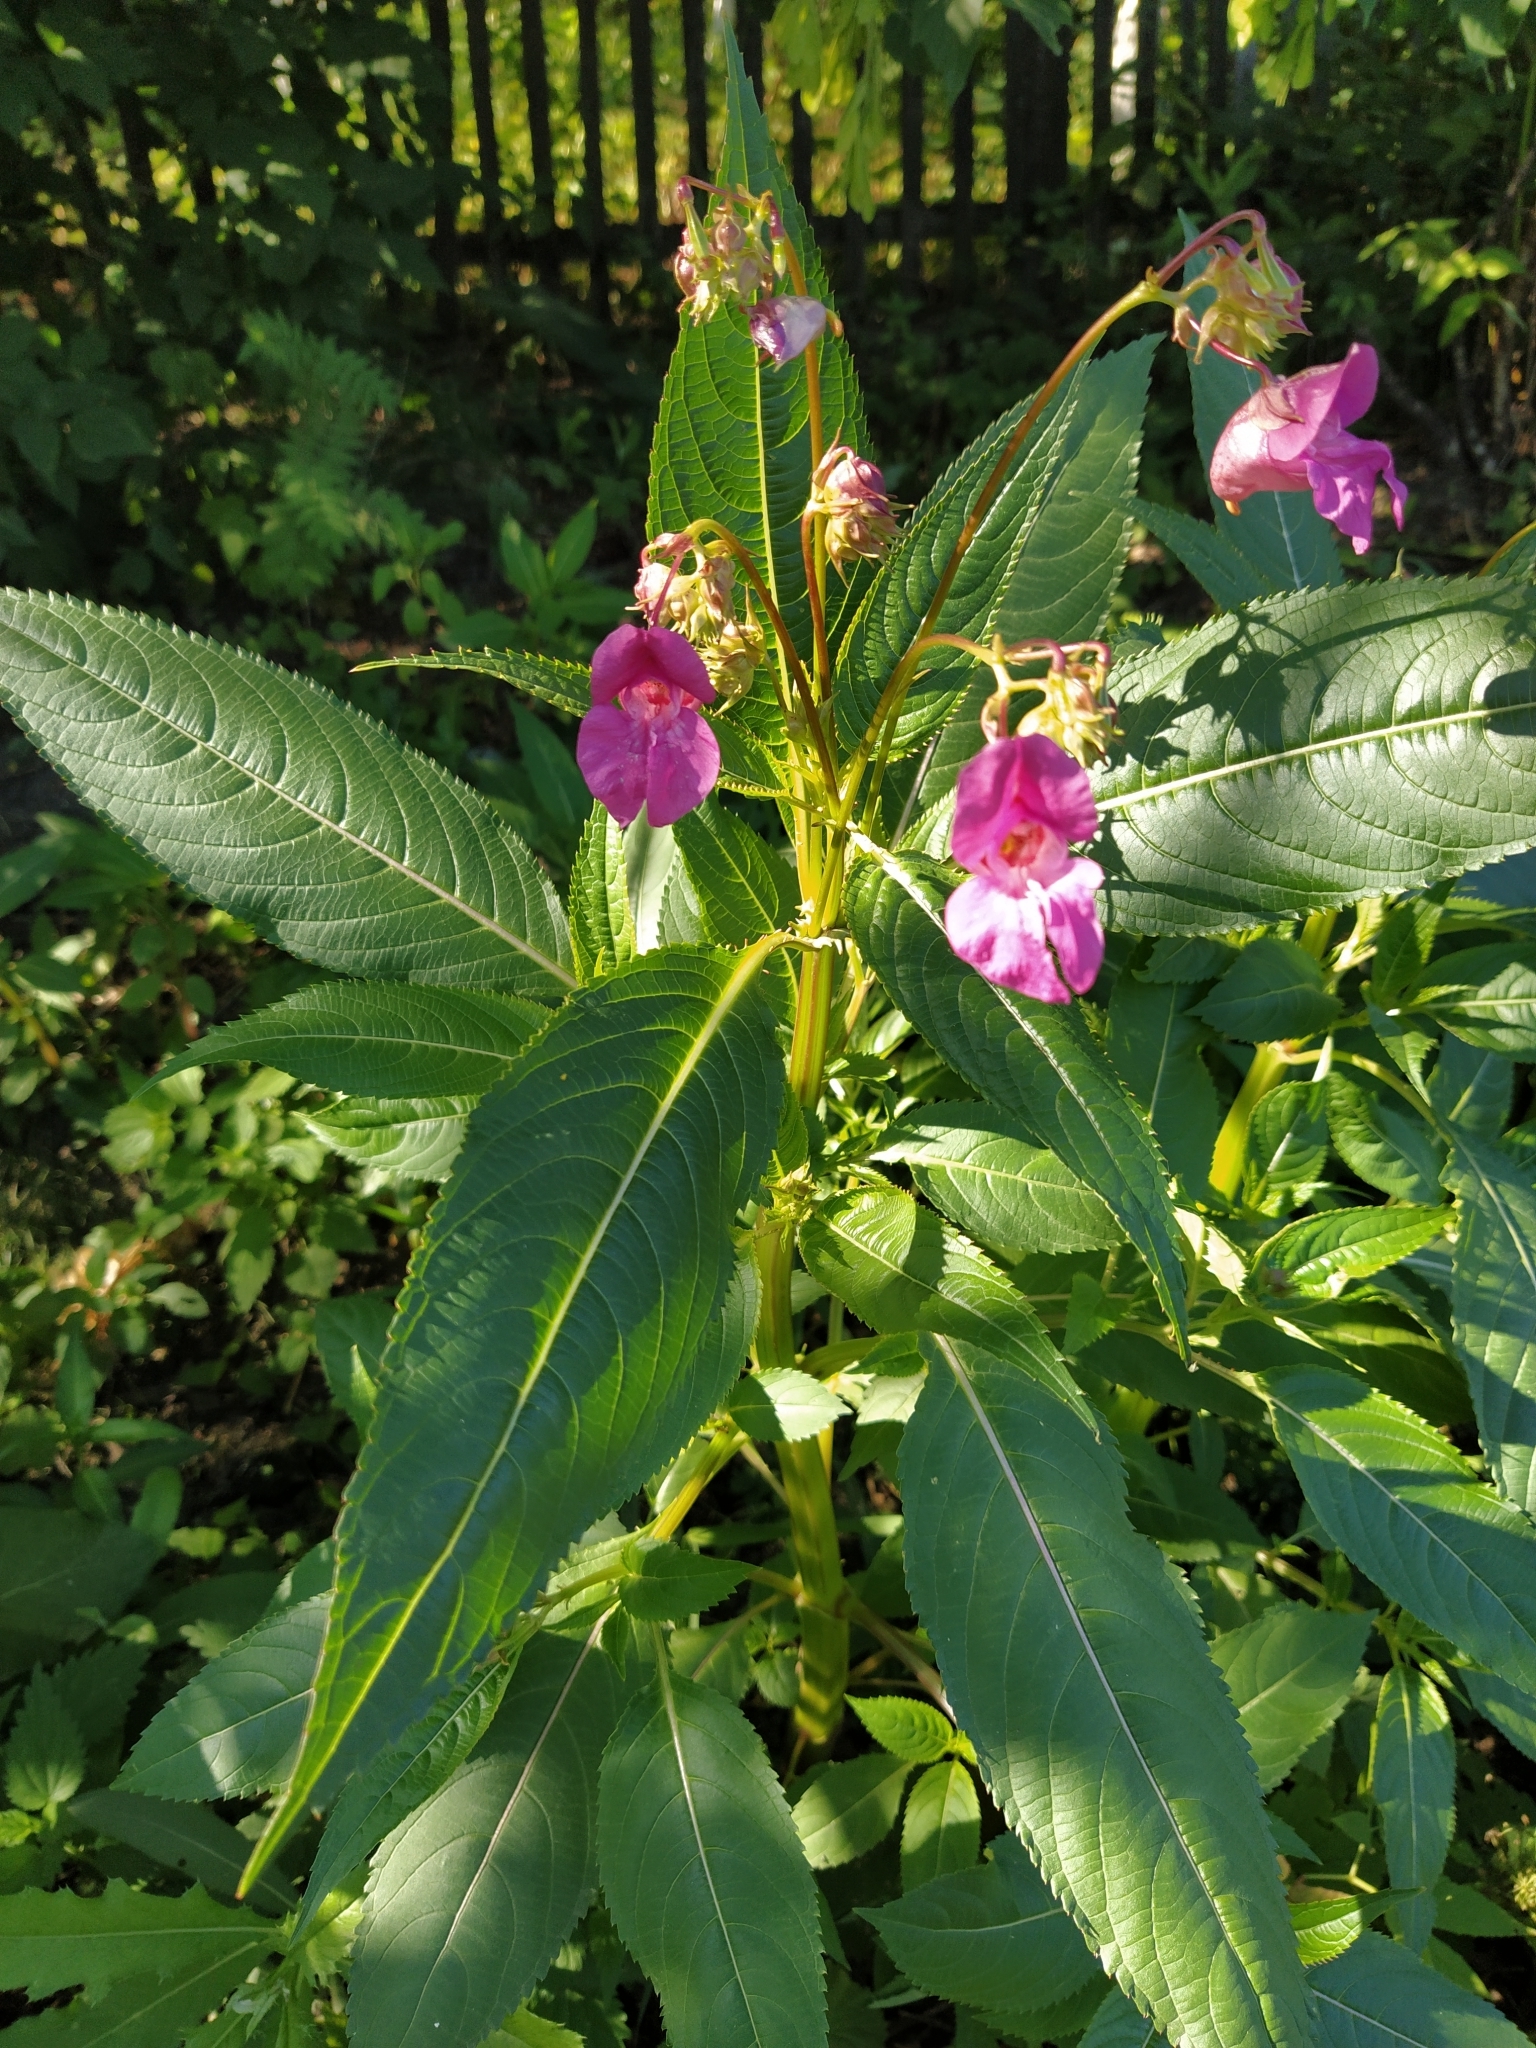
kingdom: Plantae
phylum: Tracheophyta
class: Magnoliopsida
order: Ericales
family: Balsaminaceae
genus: Impatiens
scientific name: Impatiens glandulifera
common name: Himalayan balsam
